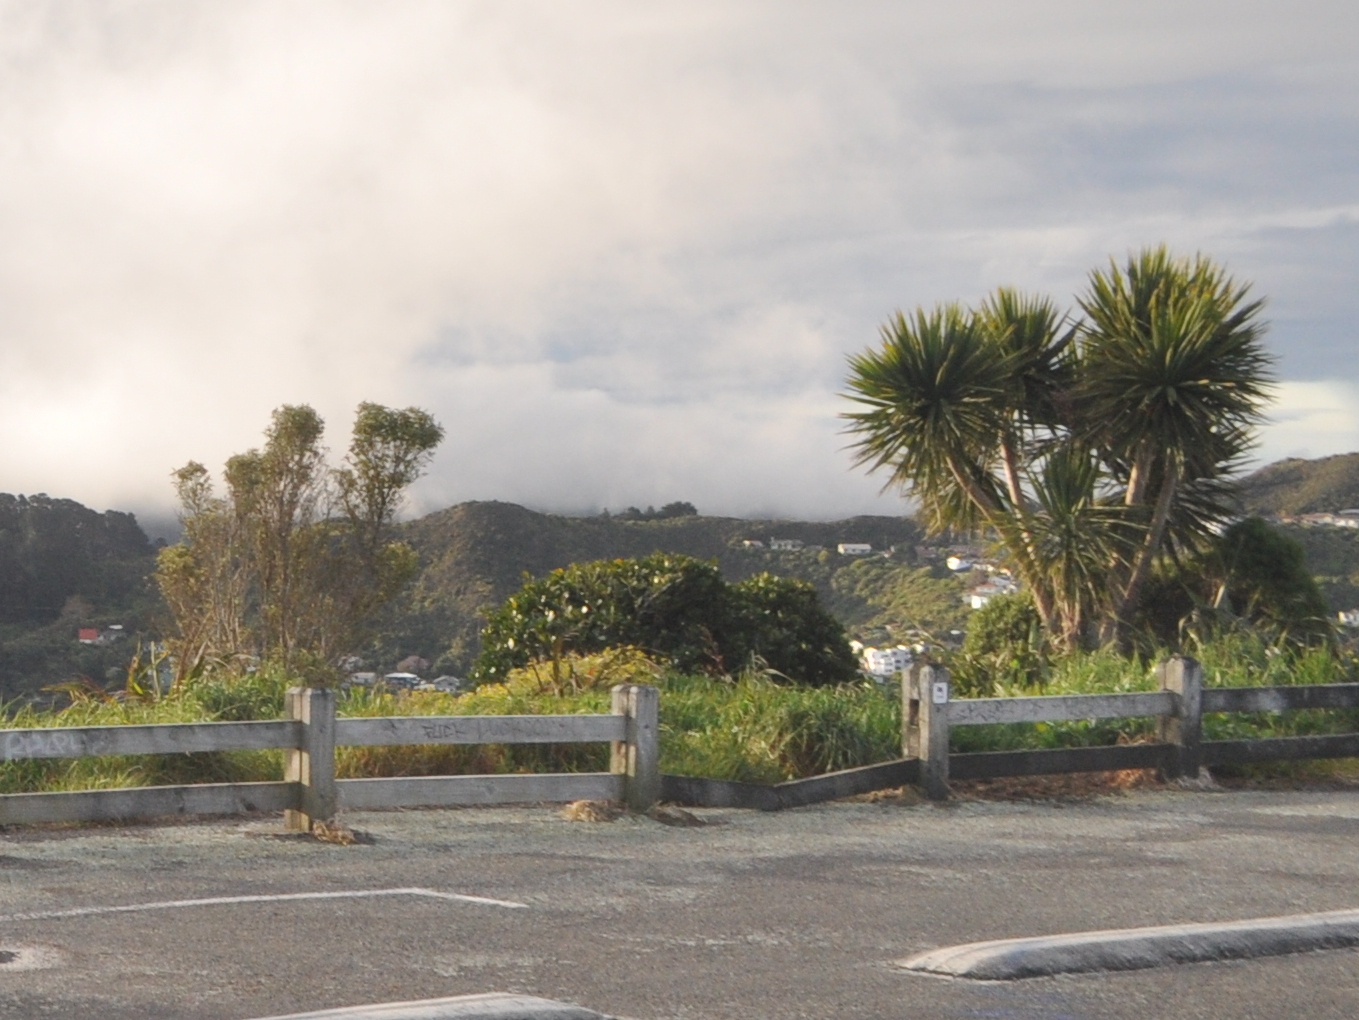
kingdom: Plantae
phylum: Tracheophyta
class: Liliopsida
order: Asparagales
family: Asparagaceae
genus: Cordyline
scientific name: Cordyline australis
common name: Cabbage-palm
